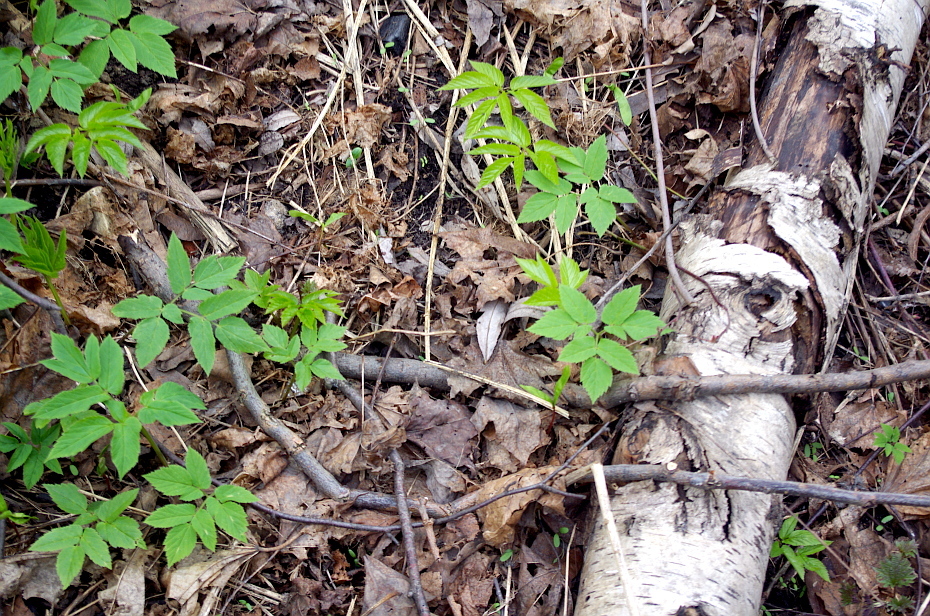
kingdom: Plantae
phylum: Tracheophyta
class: Magnoliopsida
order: Apiales
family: Apiaceae
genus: Aegopodium
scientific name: Aegopodium podagraria
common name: Ground-elder
